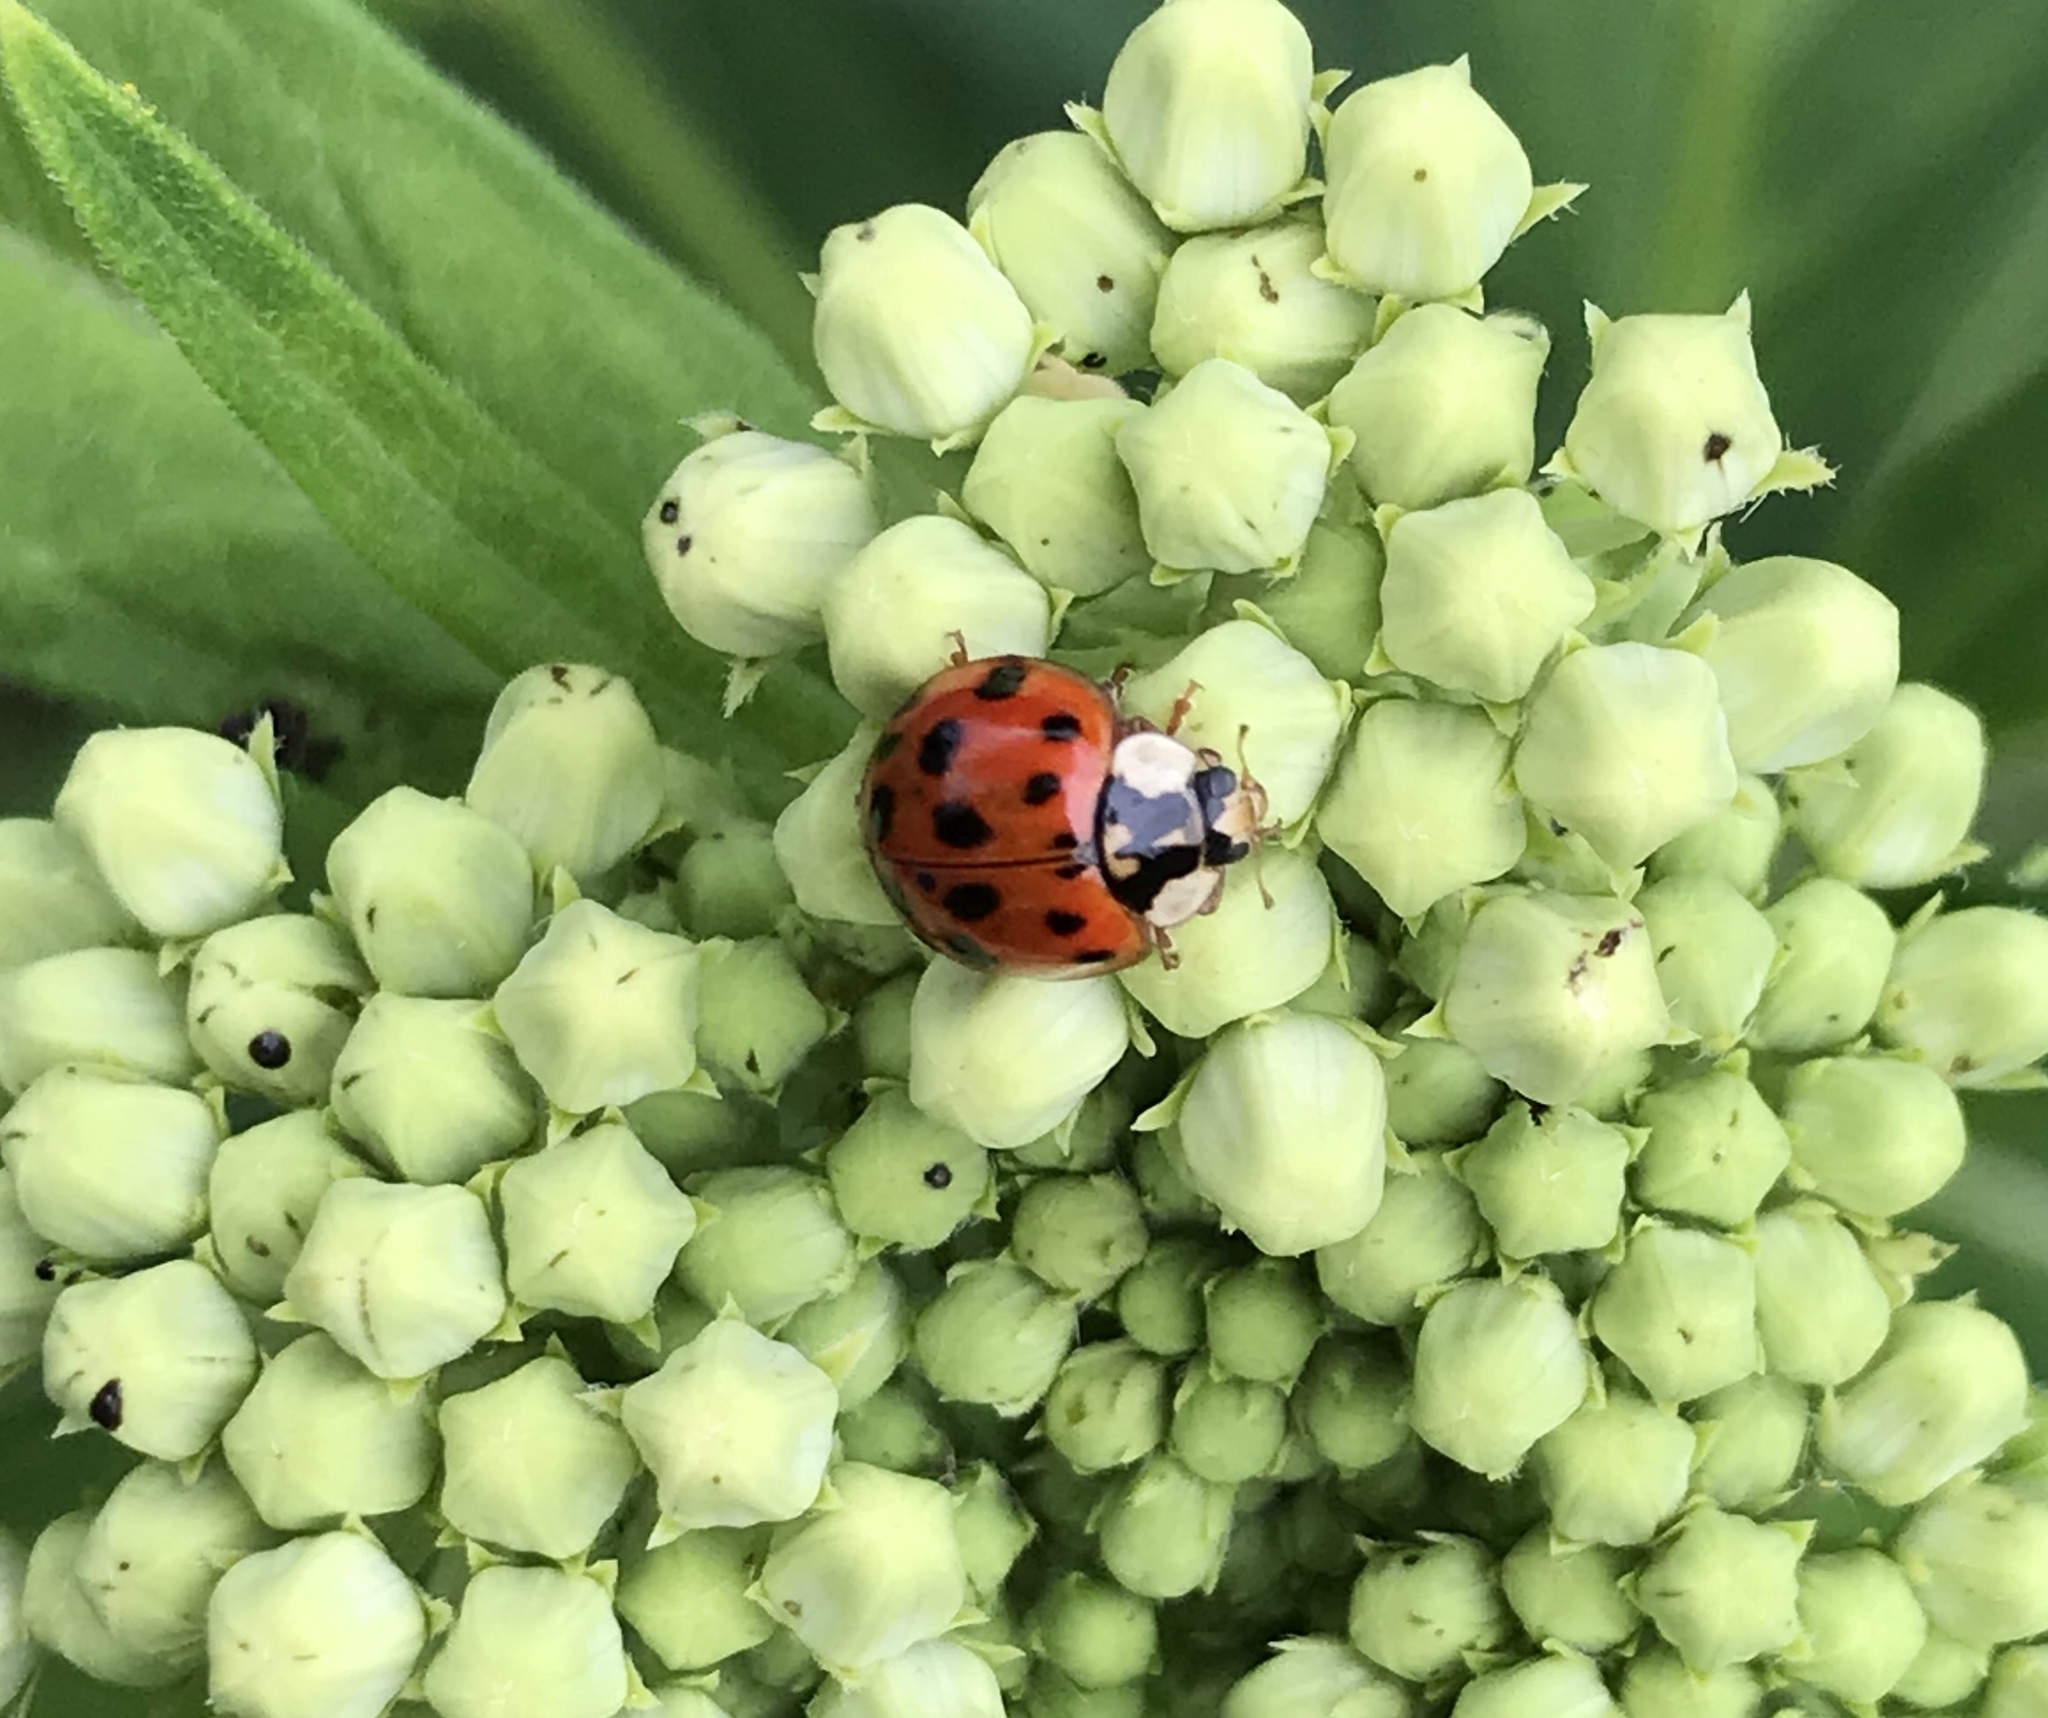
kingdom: Animalia
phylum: Arthropoda
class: Insecta
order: Coleoptera
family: Coccinellidae
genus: Harmonia
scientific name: Harmonia axyridis
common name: Harlequin ladybird
